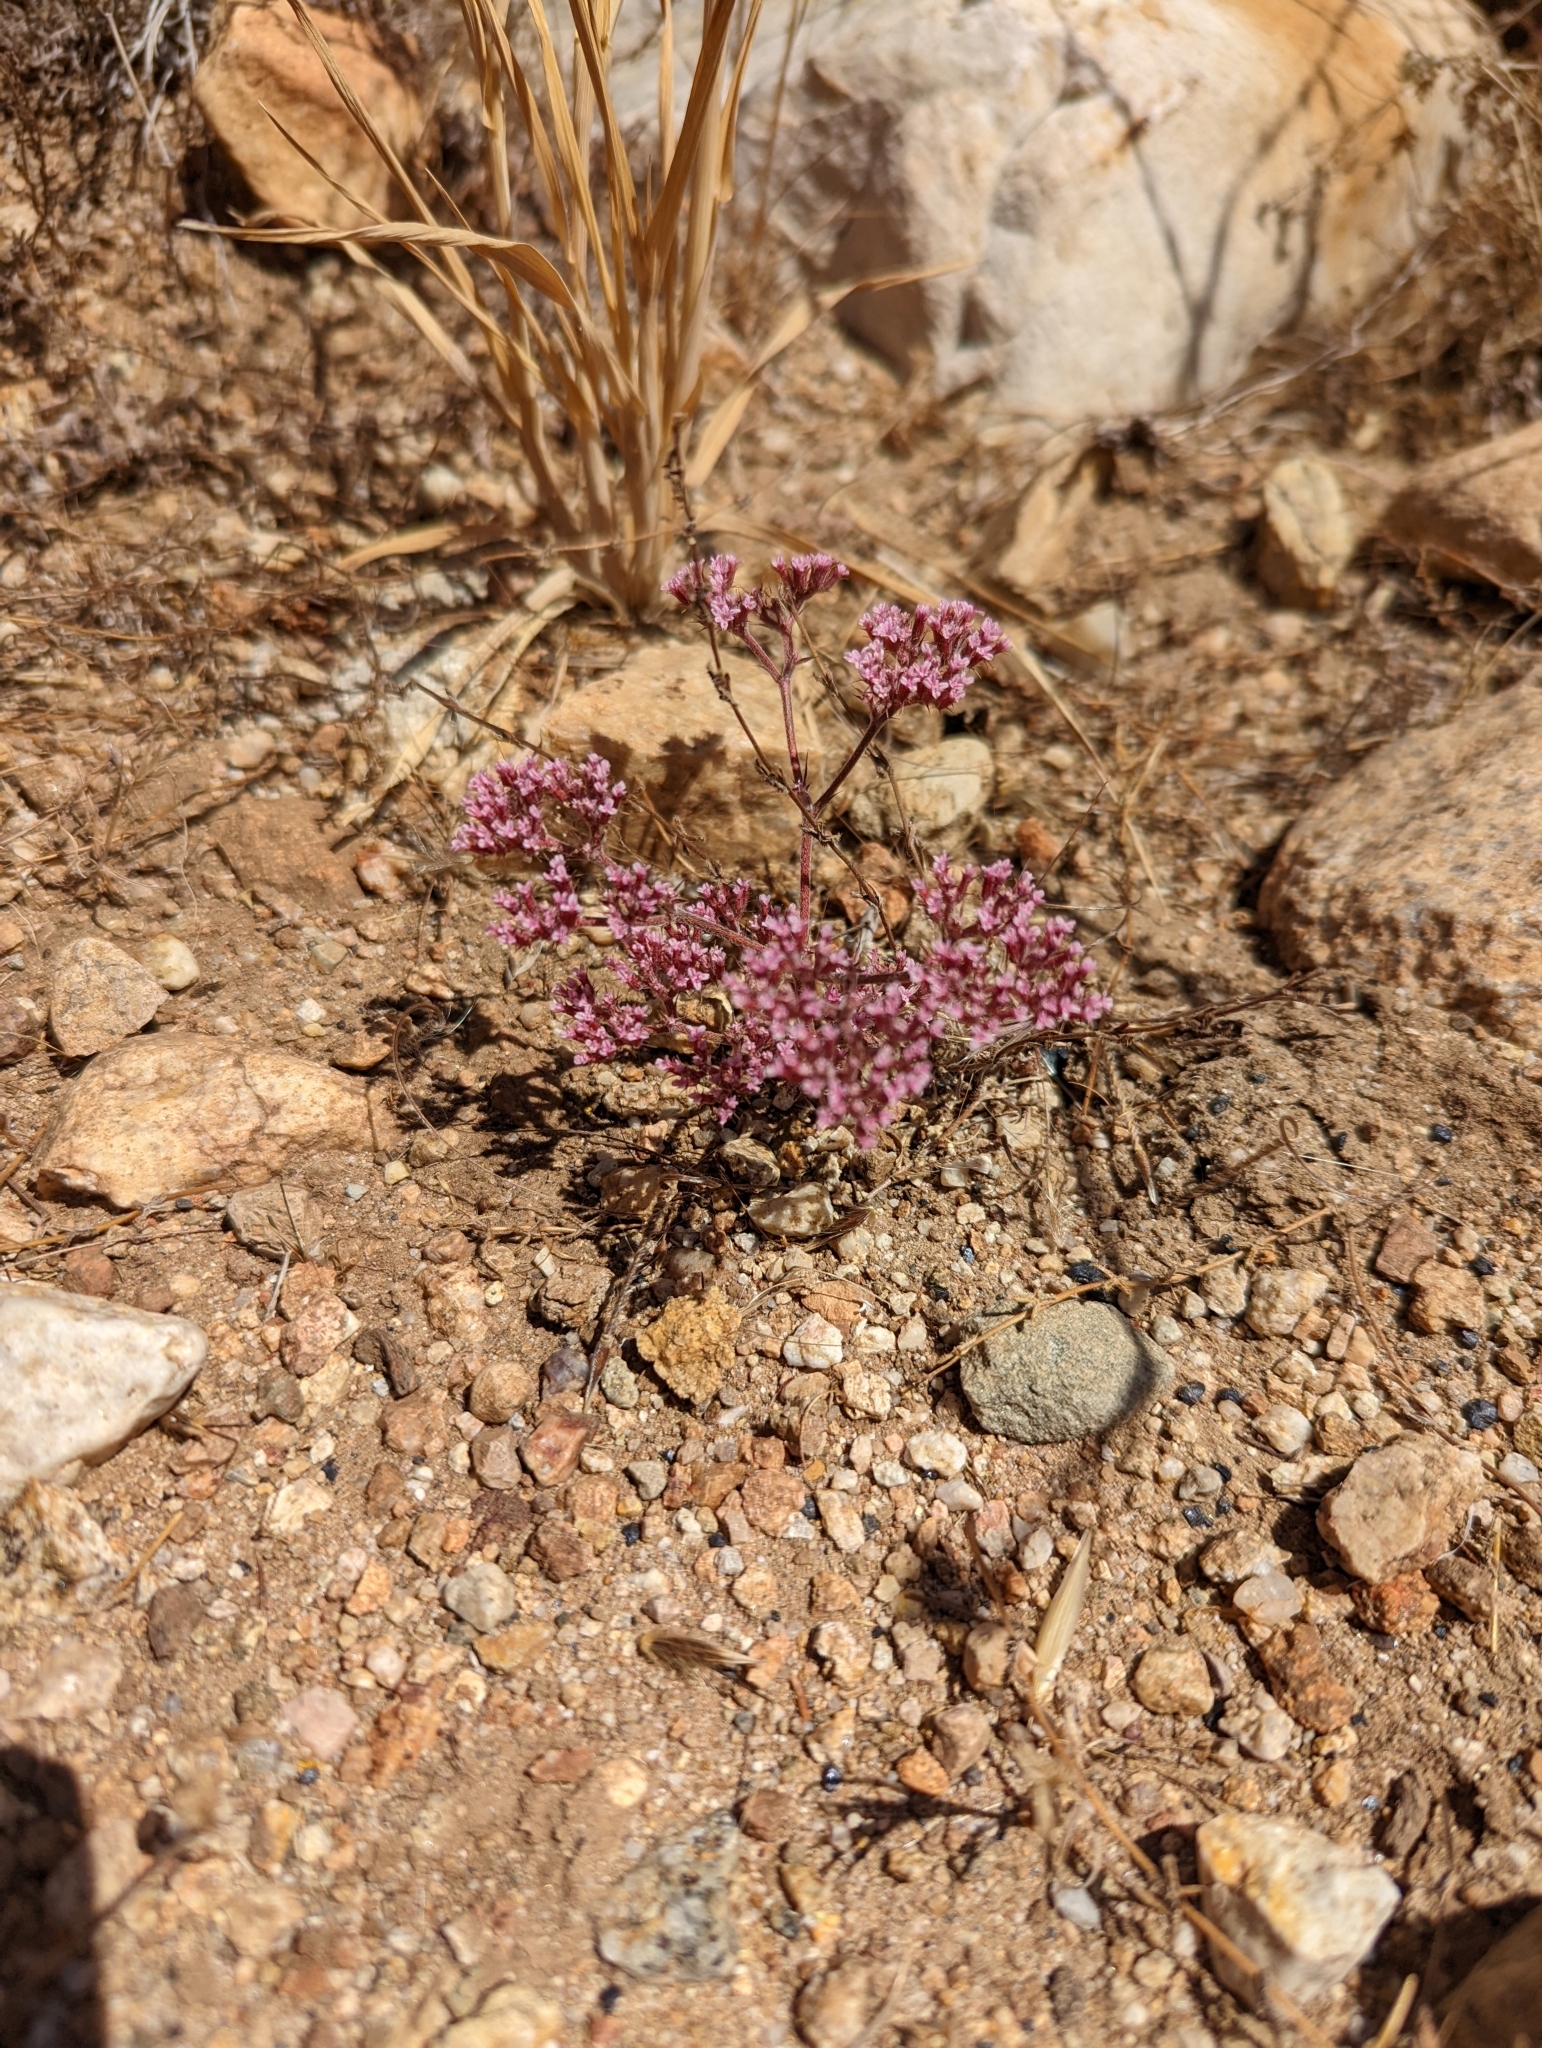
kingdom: Plantae
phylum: Tracheophyta
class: Magnoliopsida
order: Caryophyllales
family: Polygonaceae
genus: Chorizanthe
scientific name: Chorizanthe staticoides
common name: Turkish rugging
